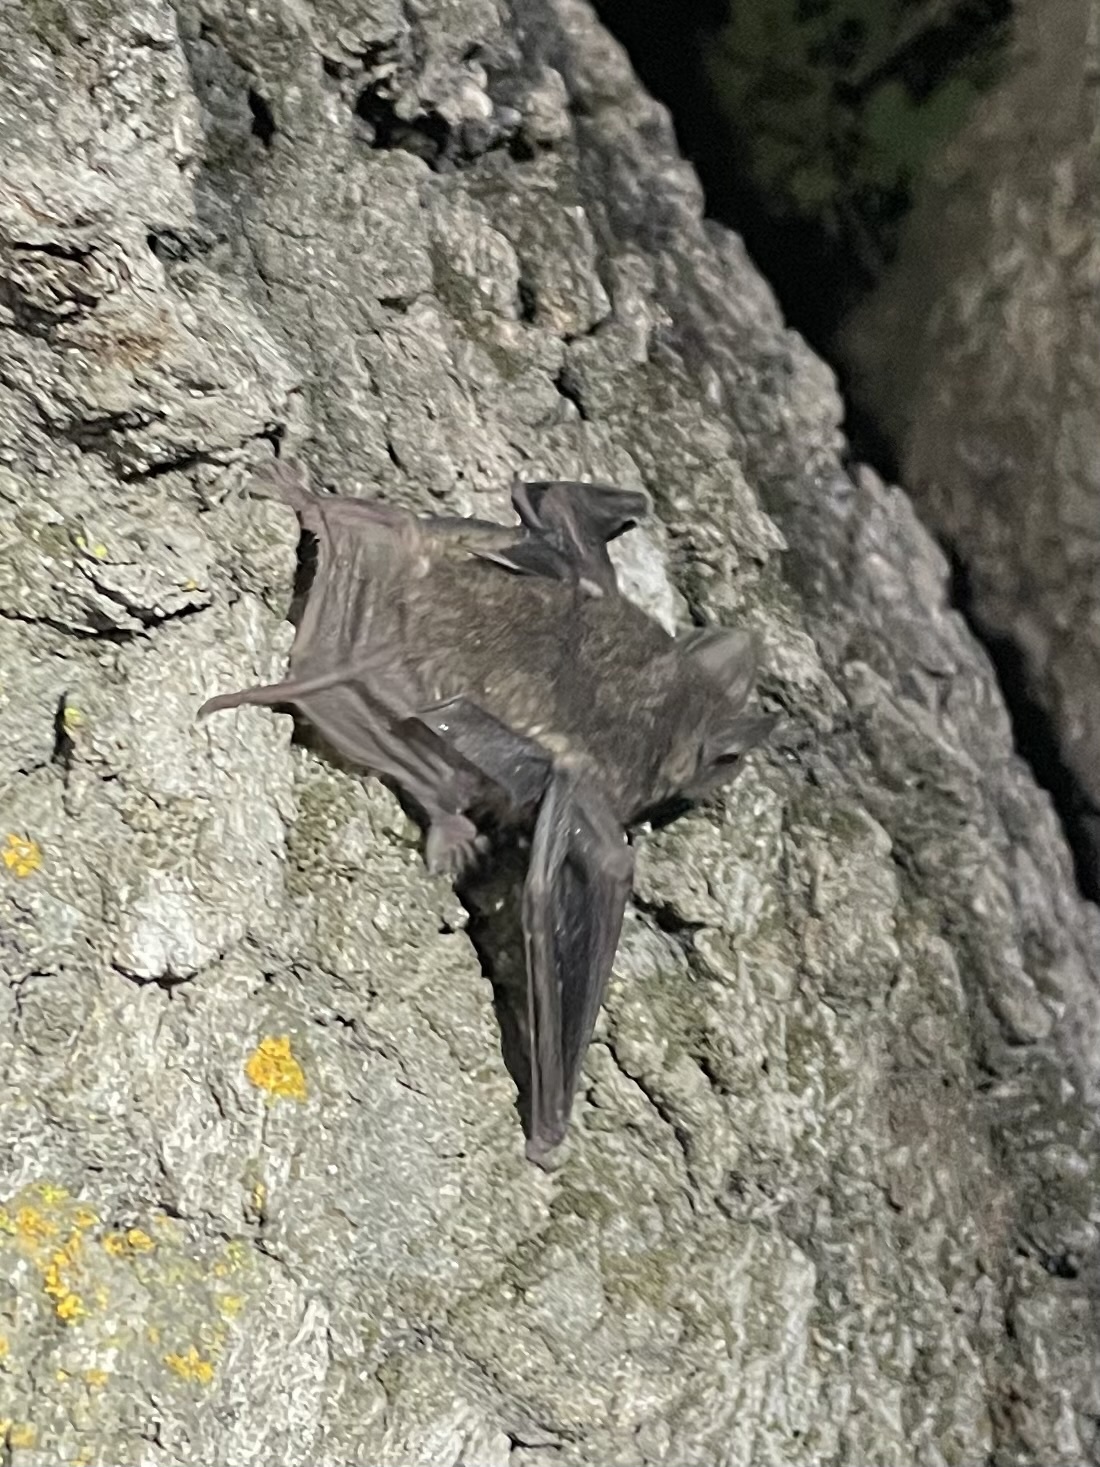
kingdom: Animalia
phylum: Chordata
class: Mammalia
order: Chiroptera
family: Molossidae
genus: Tadarida
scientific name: Tadarida brasiliensis
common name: Mexican free-tailed bat
